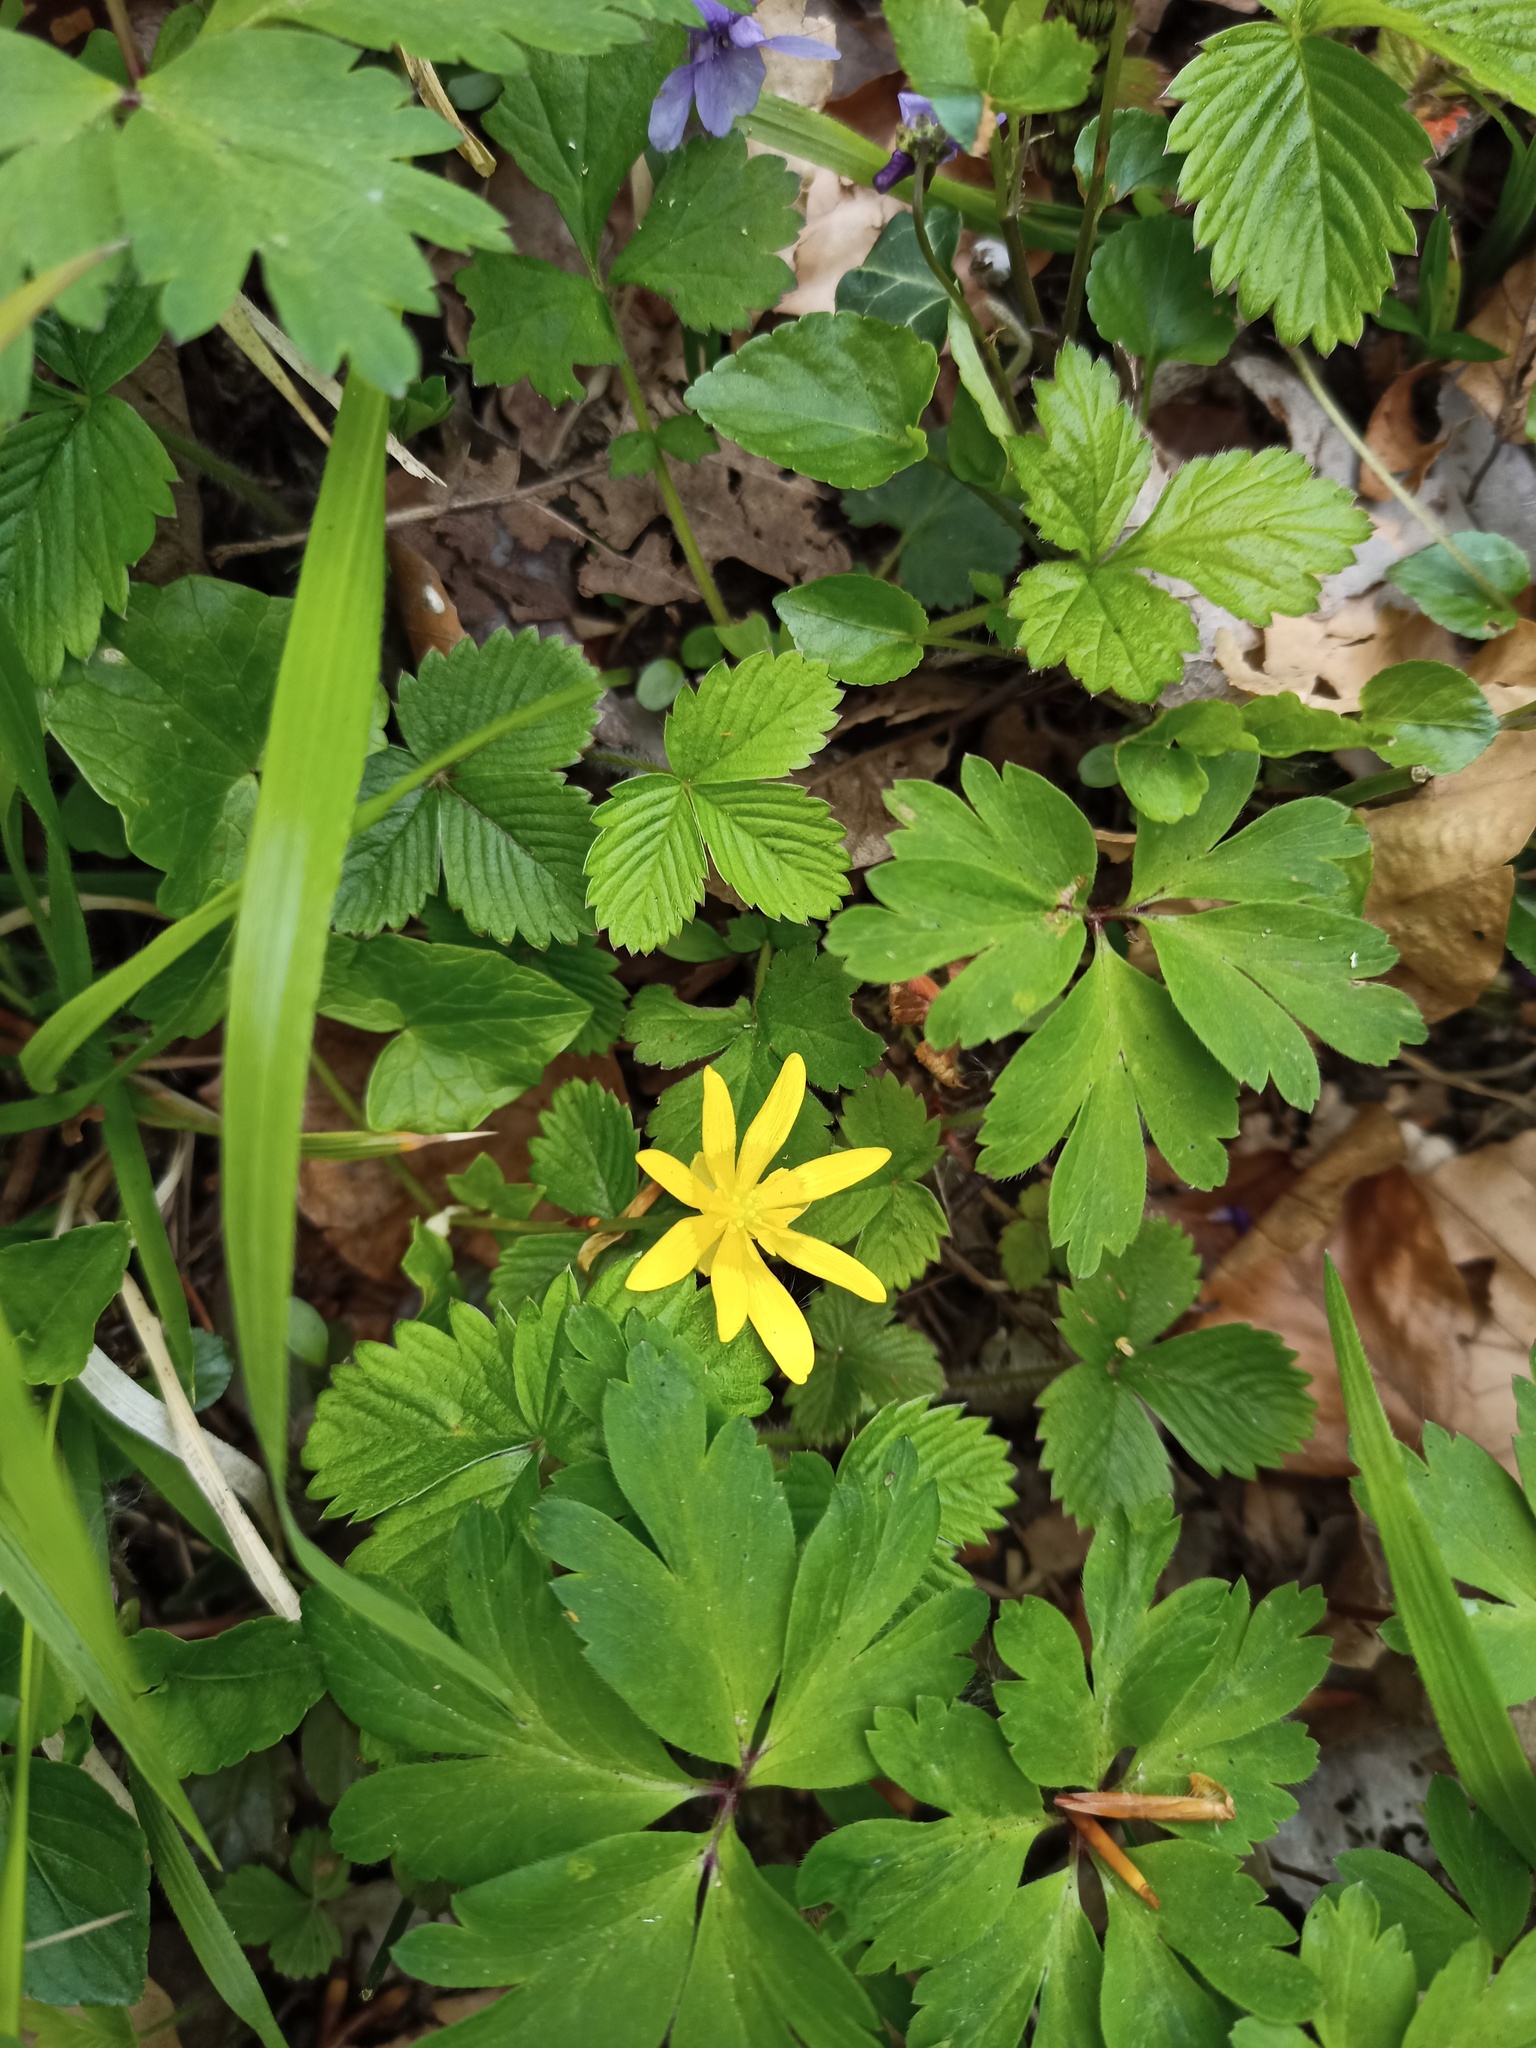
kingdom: Plantae
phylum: Tracheophyta
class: Magnoliopsida
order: Ranunculales
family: Ranunculaceae
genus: Ficaria
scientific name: Ficaria verna
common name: Lesser celandine
